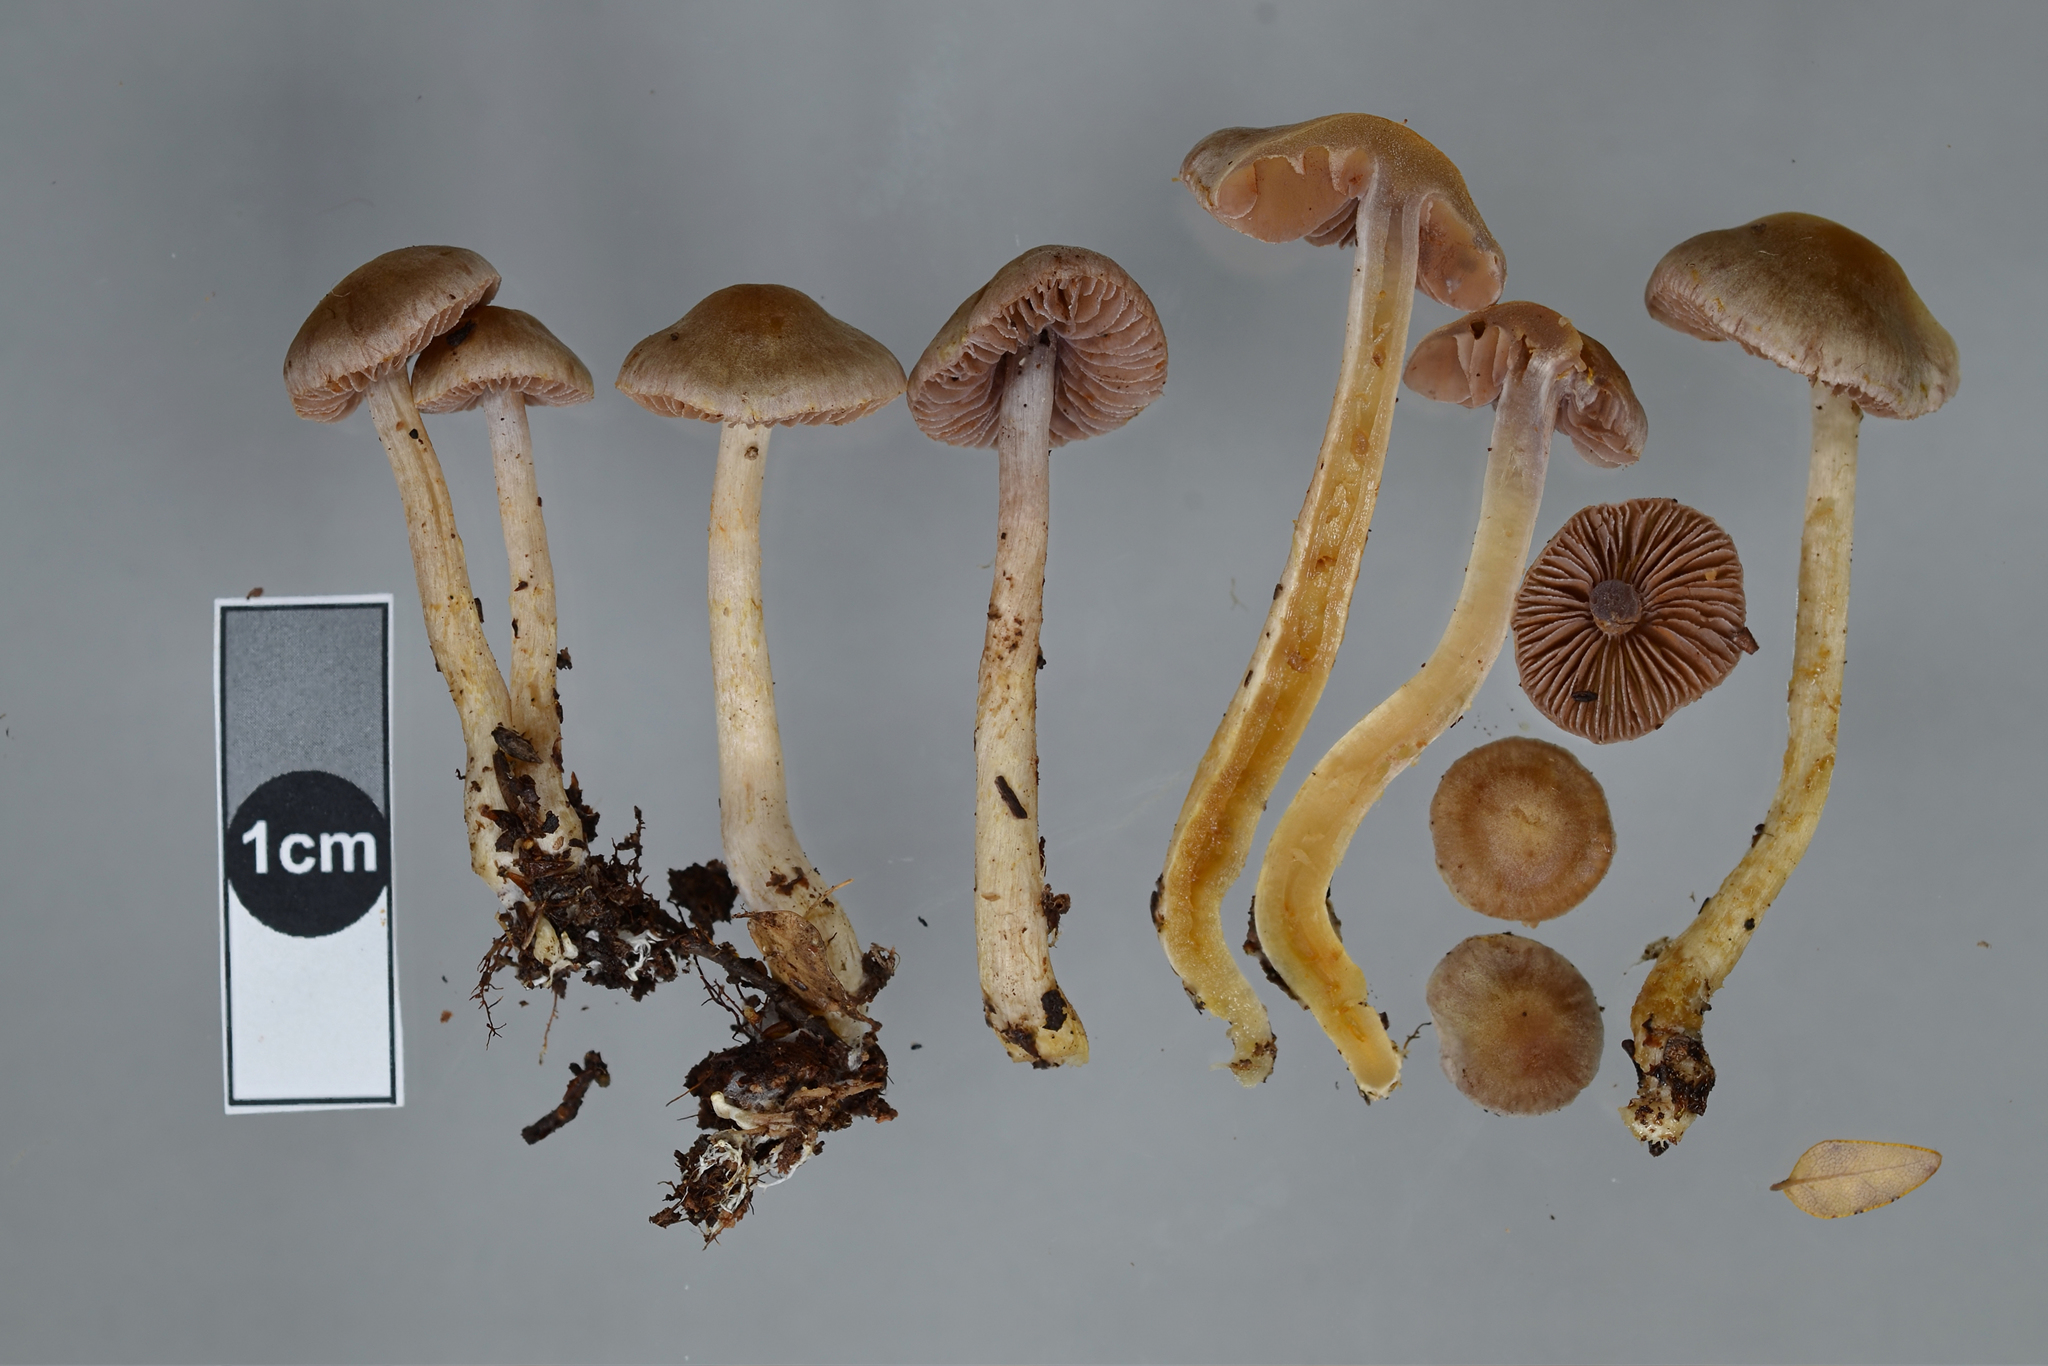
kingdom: Fungi
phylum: Basidiomycota
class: Agaricomycetes
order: Agaricales
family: Cortinariaceae
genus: Cortinarius
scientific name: Cortinarius suecicolor
